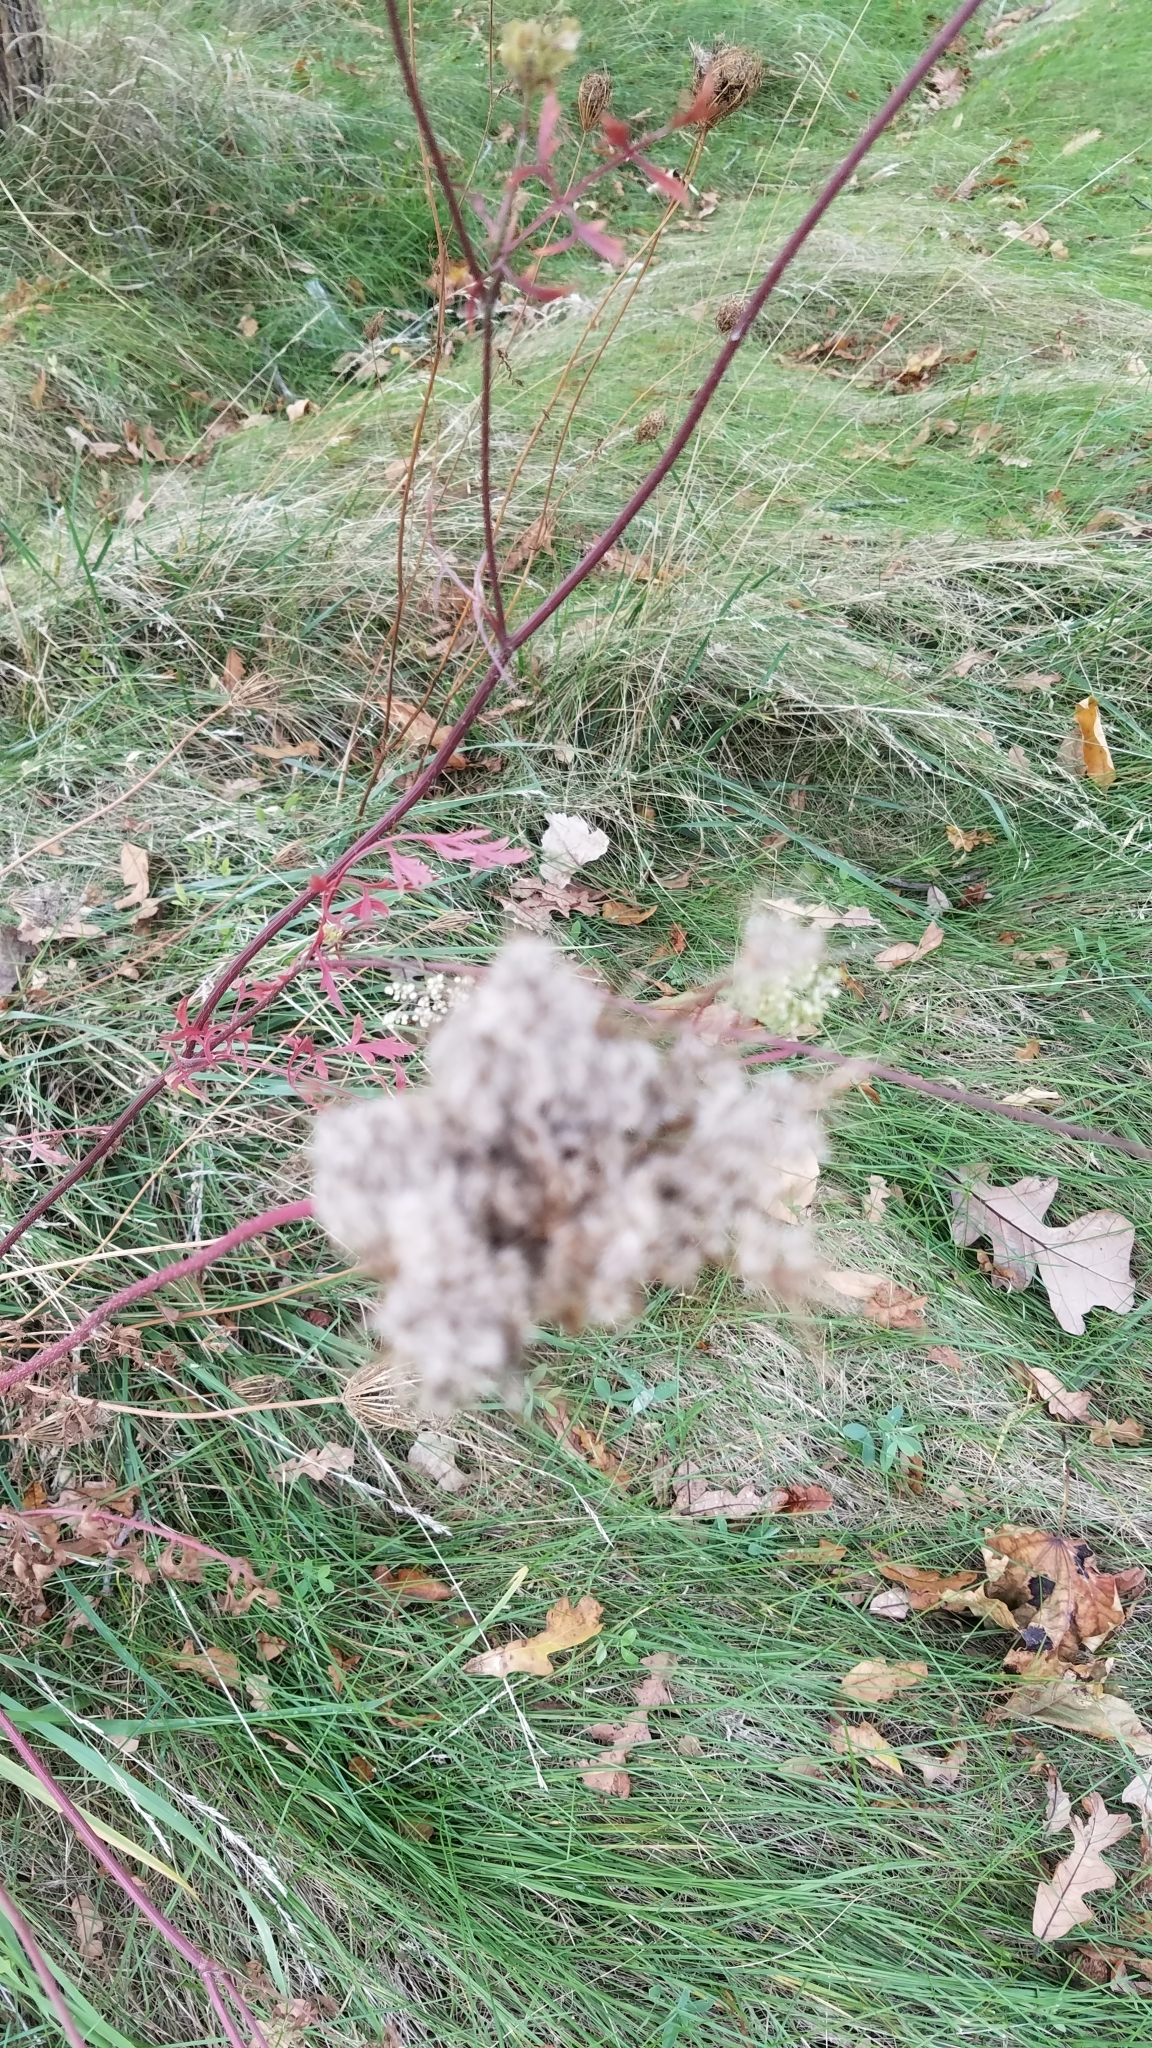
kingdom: Plantae
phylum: Tracheophyta
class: Magnoliopsida
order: Apiales
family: Apiaceae
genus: Daucus
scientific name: Daucus carota
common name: Wild carrot
